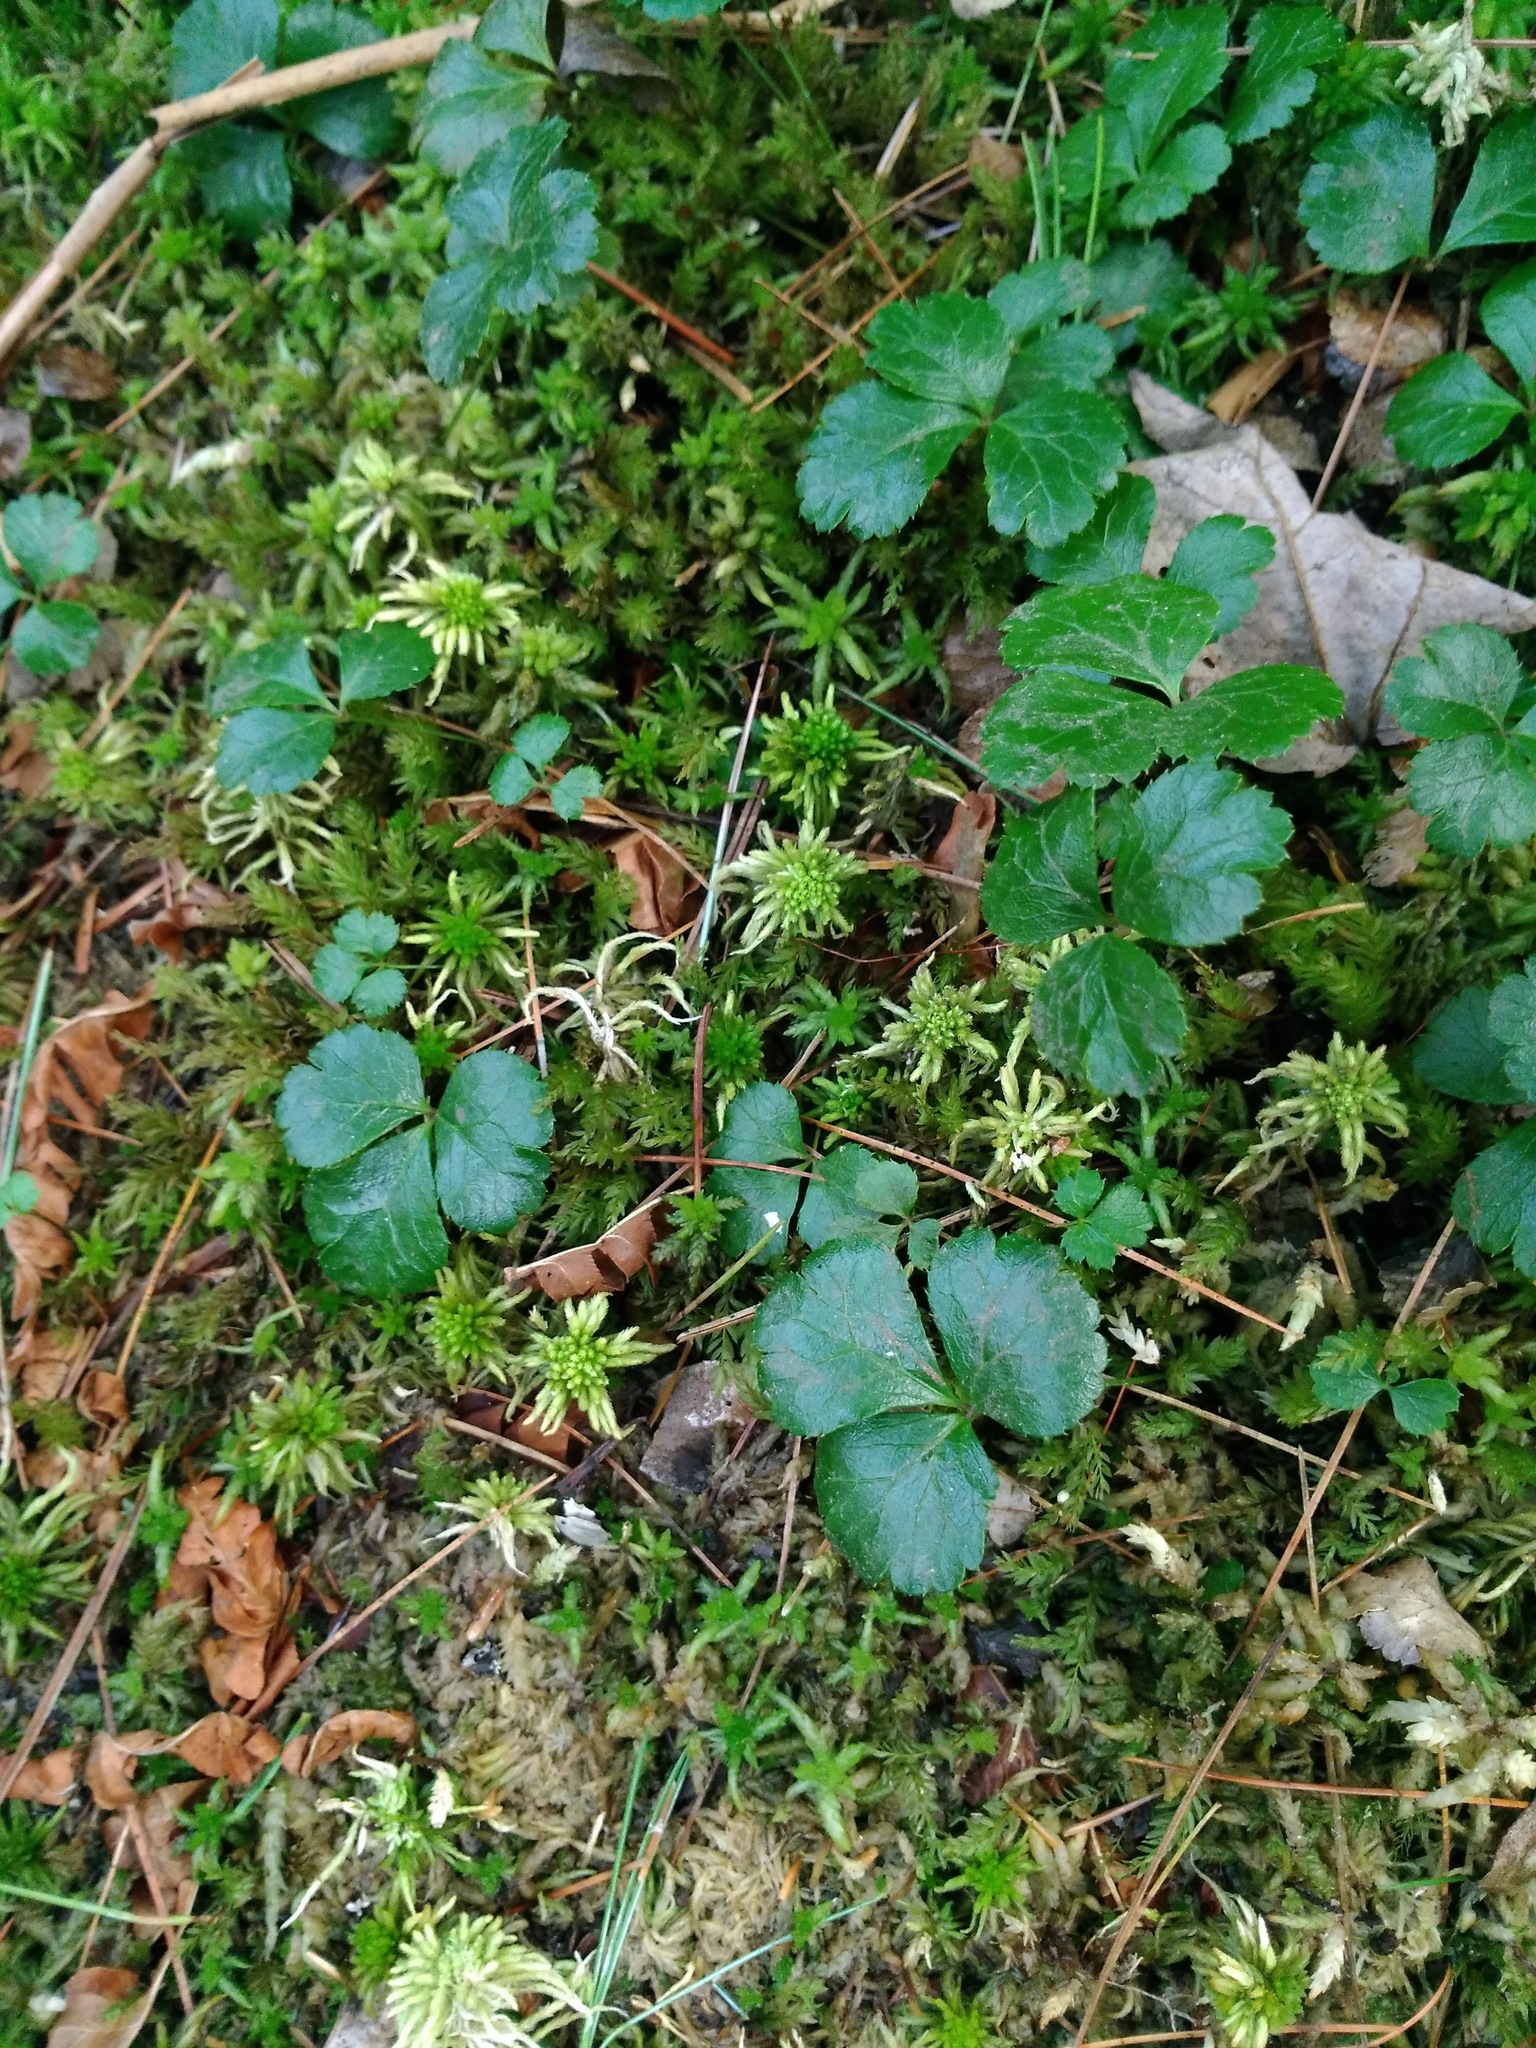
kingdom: Plantae
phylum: Tracheophyta
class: Magnoliopsida
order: Ranunculales
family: Ranunculaceae
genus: Coptis
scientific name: Coptis trifolia
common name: Canker-root
